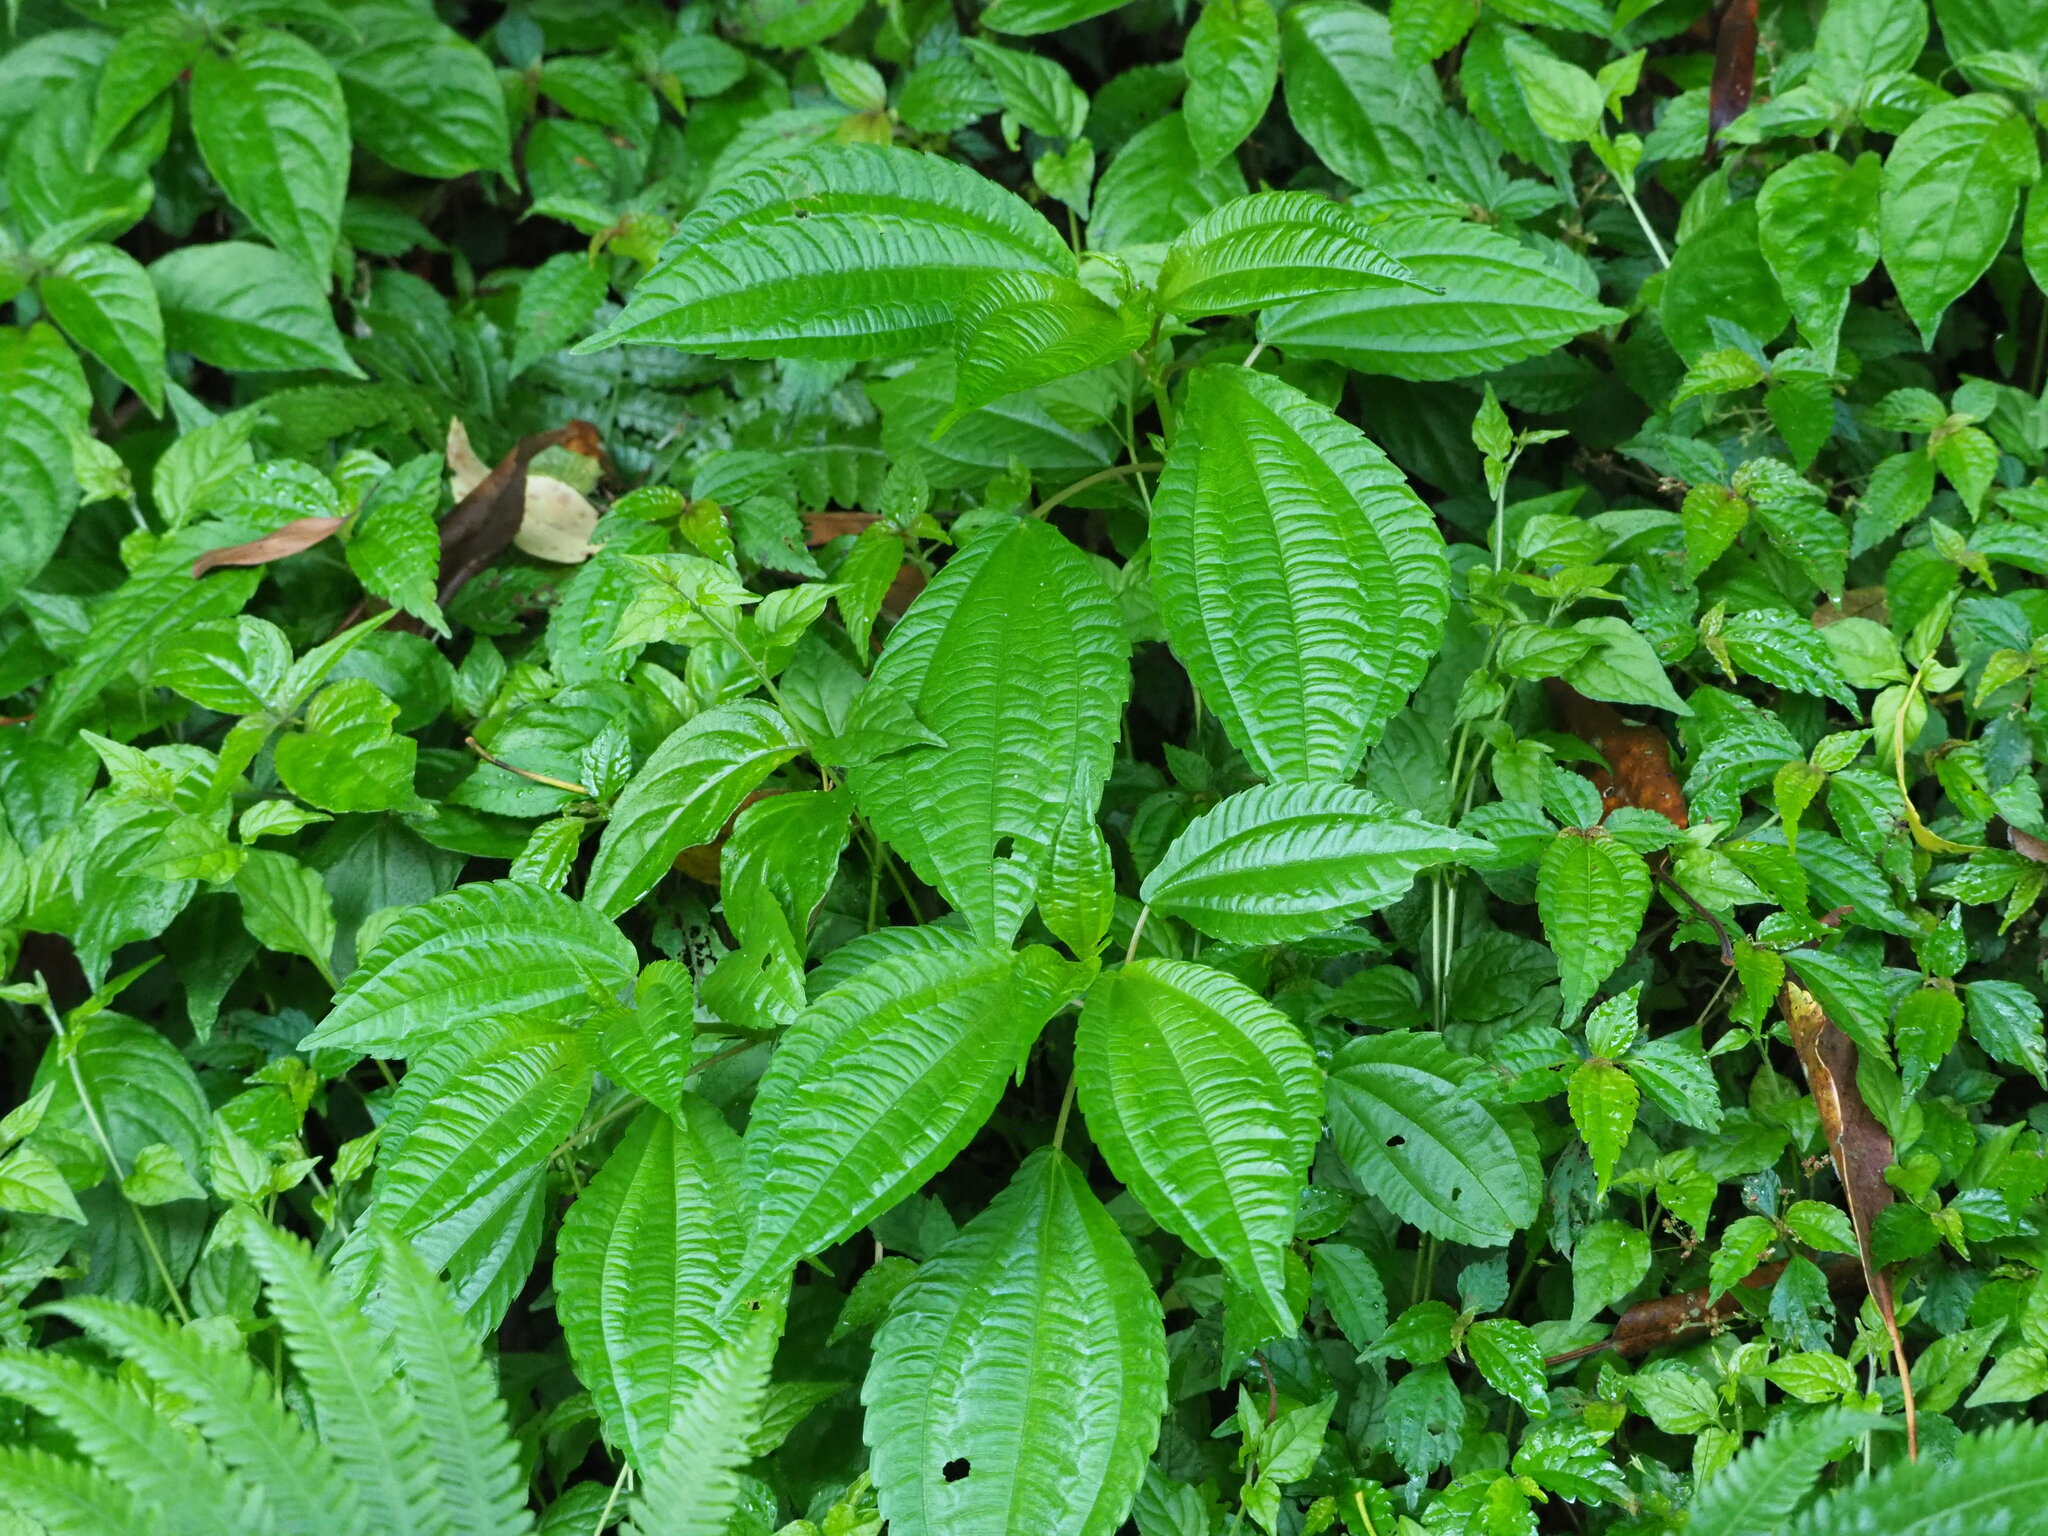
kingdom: Plantae
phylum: Tracheophyta
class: Magnoliopsida
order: Rosales
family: Urticaceae
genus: Pilea
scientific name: Pilea melastomoides
